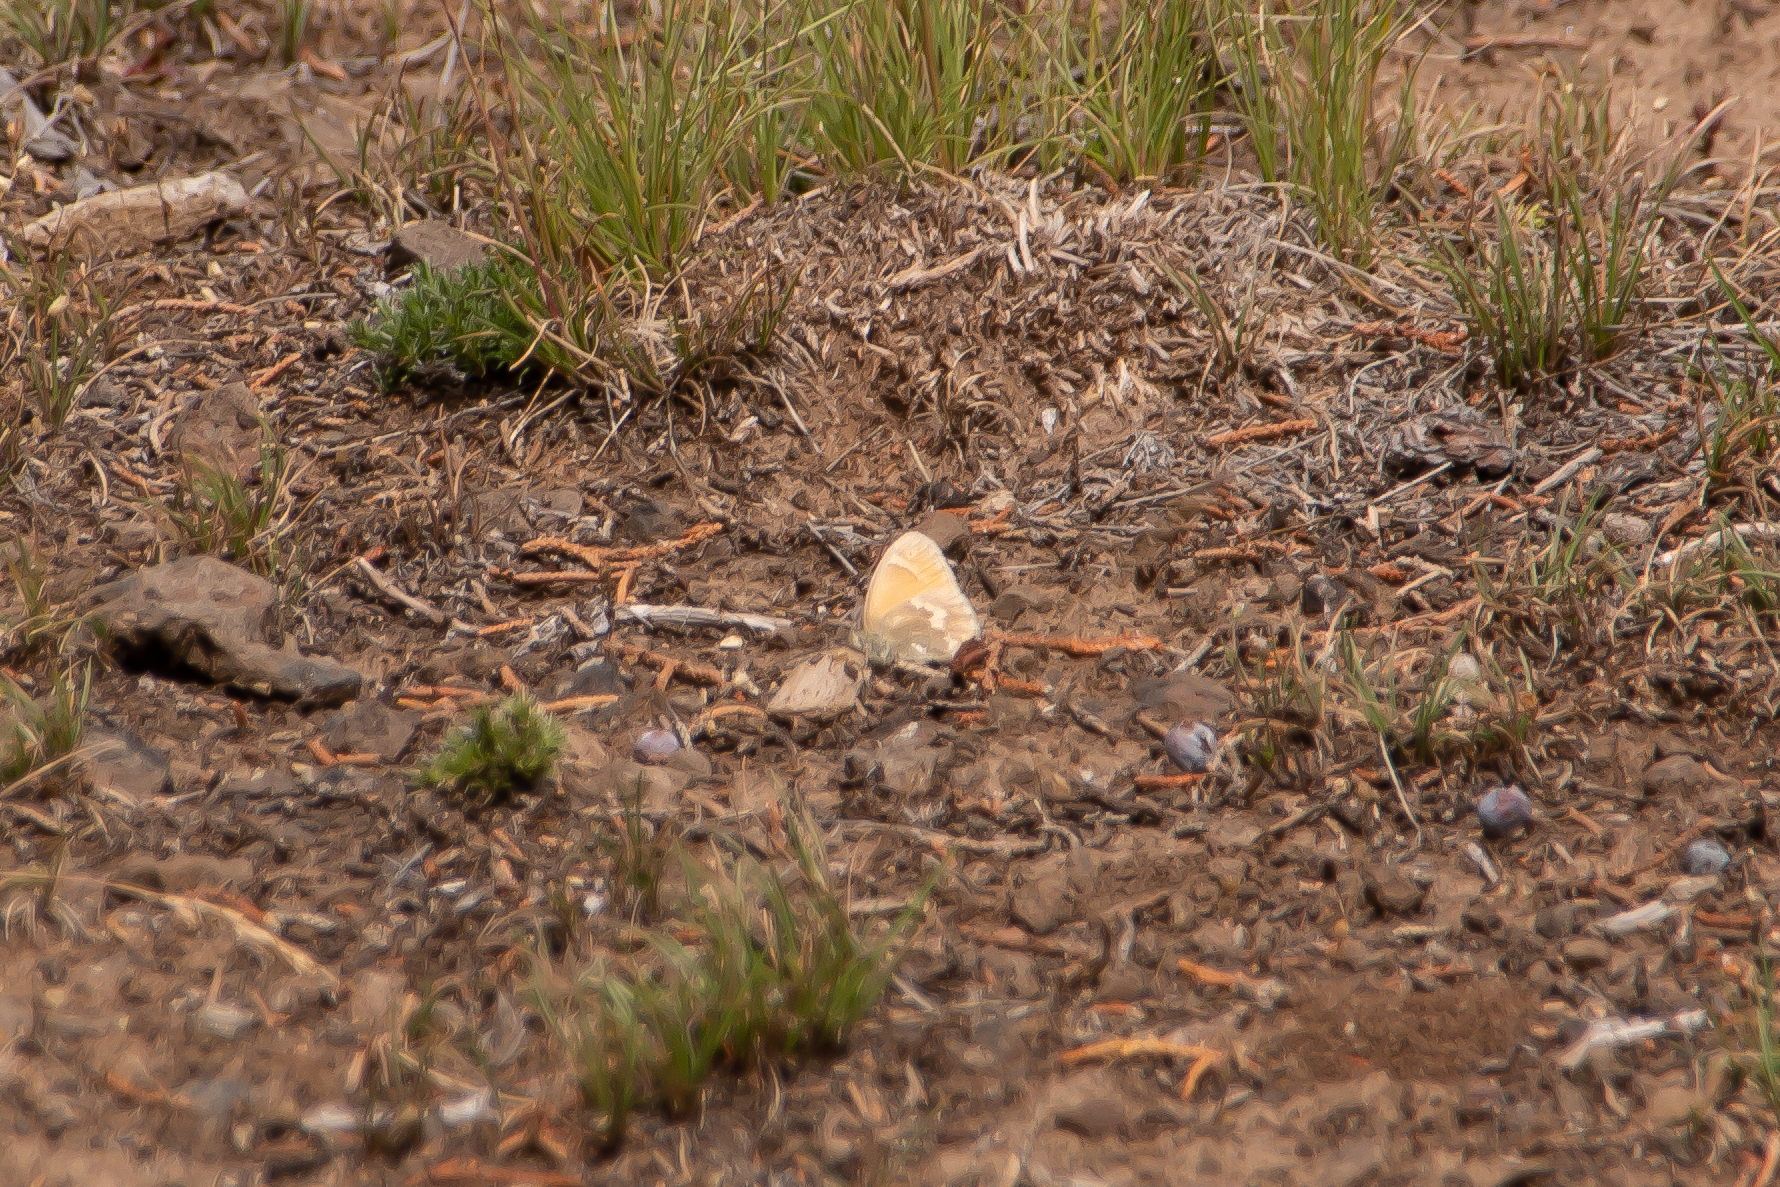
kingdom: Animalia
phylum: Arthropoda
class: Insecta
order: Lepidoptera
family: Nymphalidae
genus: Coenonympha
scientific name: Coenonympha california
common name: Common ringlet
